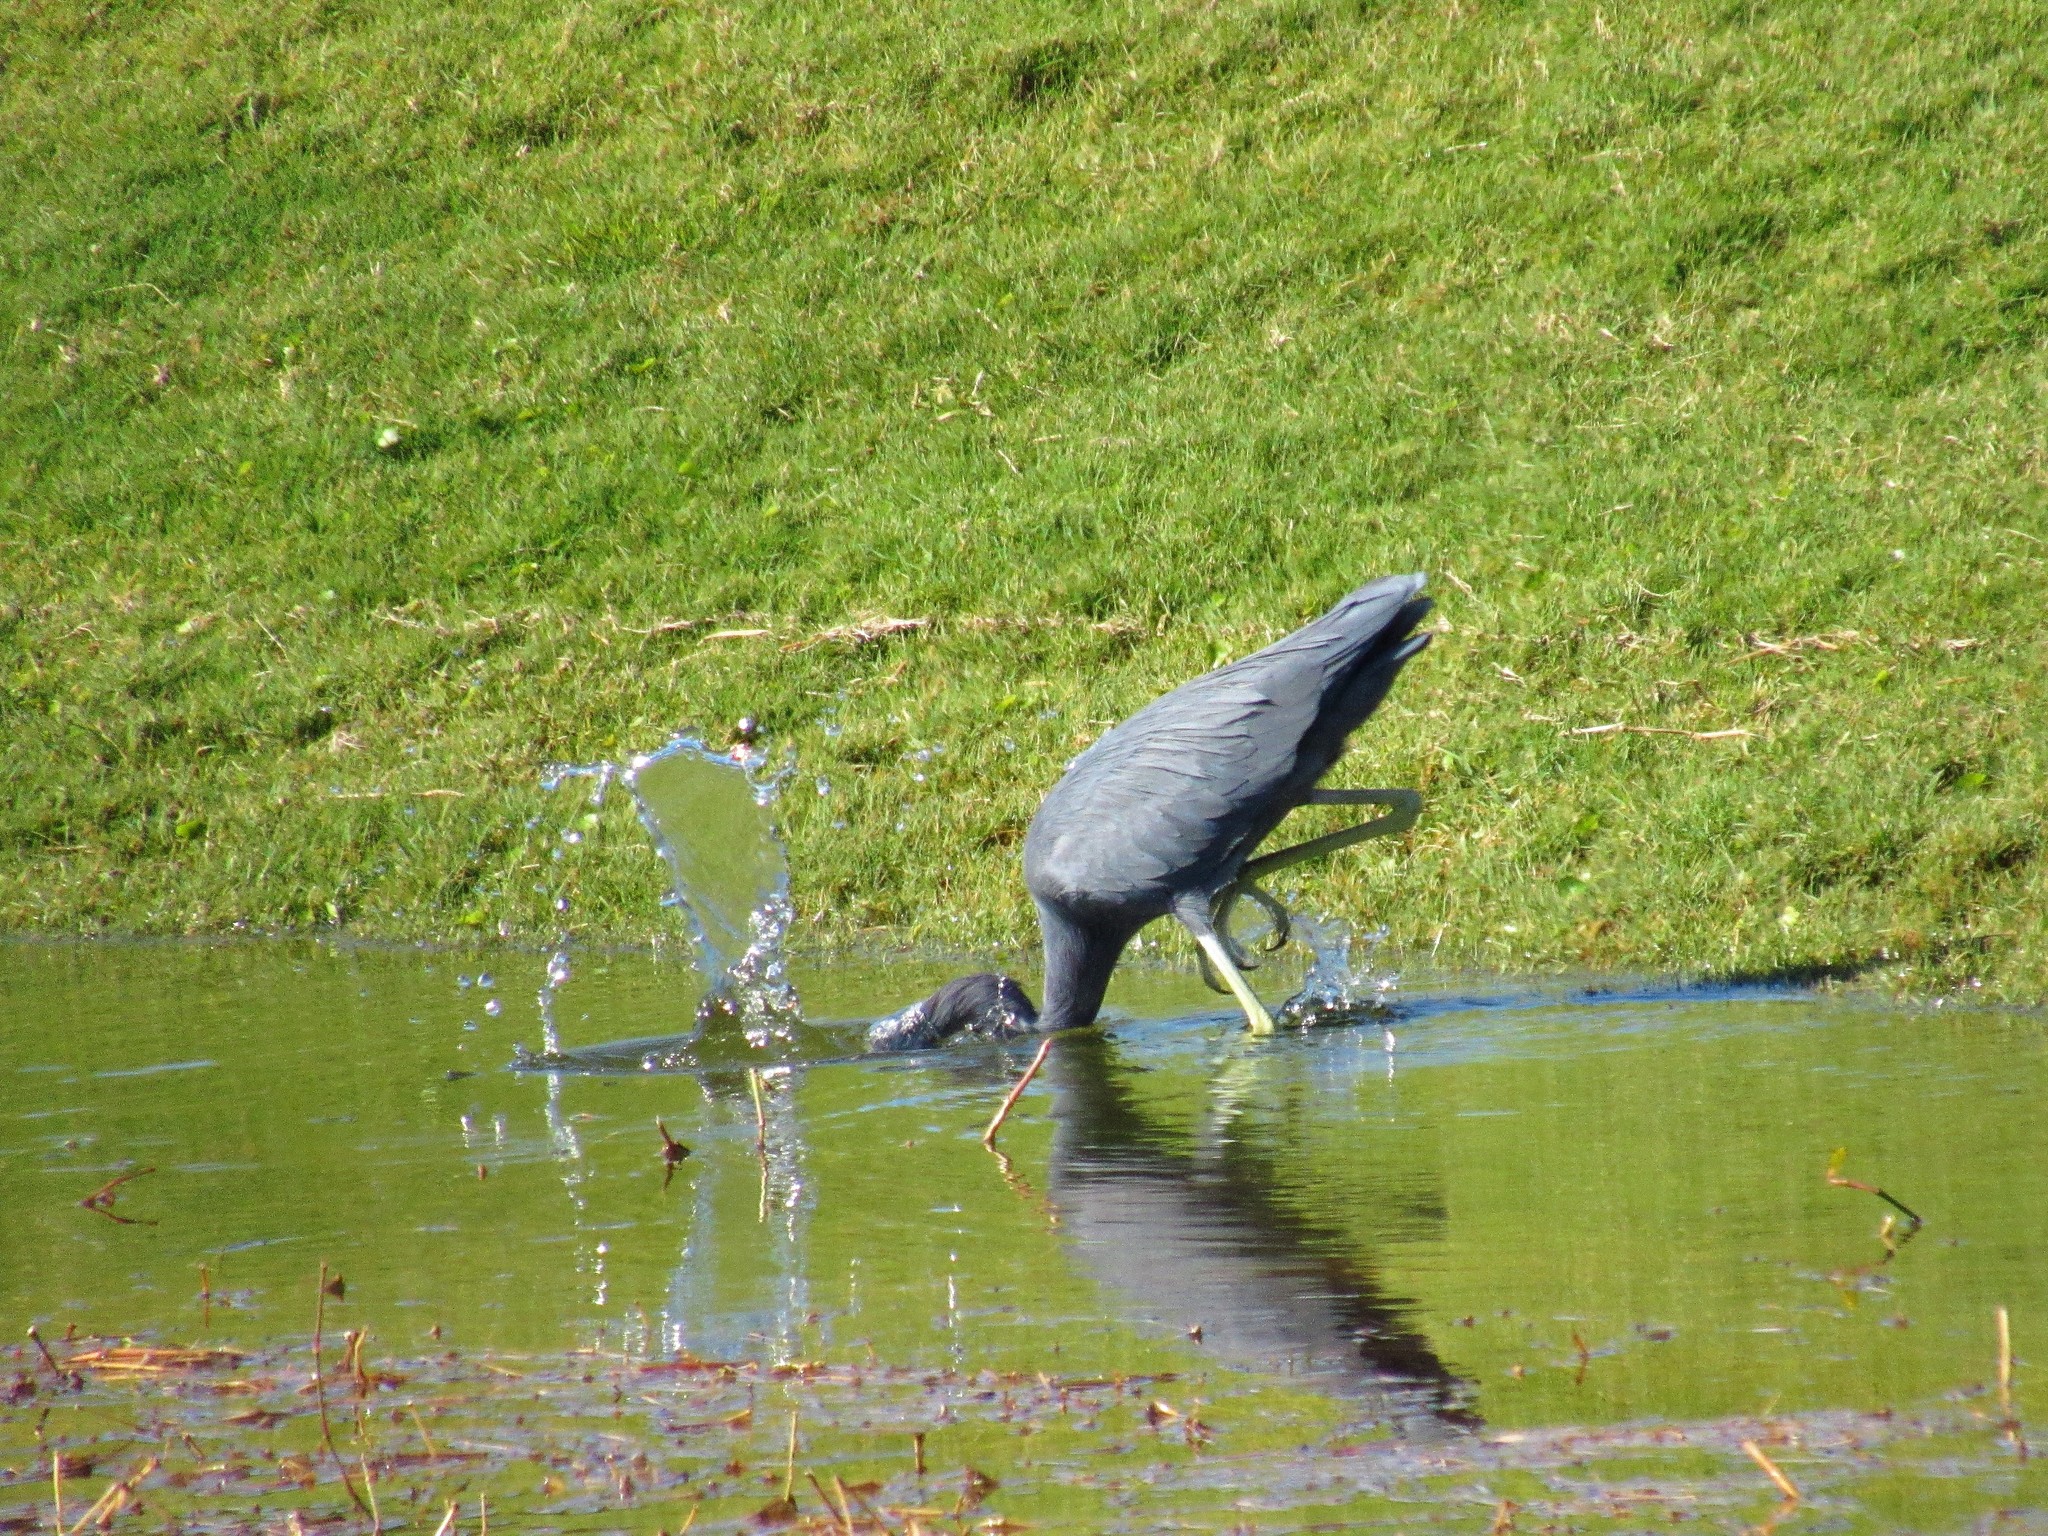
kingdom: Animalia
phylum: Chordata
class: Aves
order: Pelecaniformes
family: Ardeidae
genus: Egretta
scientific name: Egretta caerulea
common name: Little blue heron
